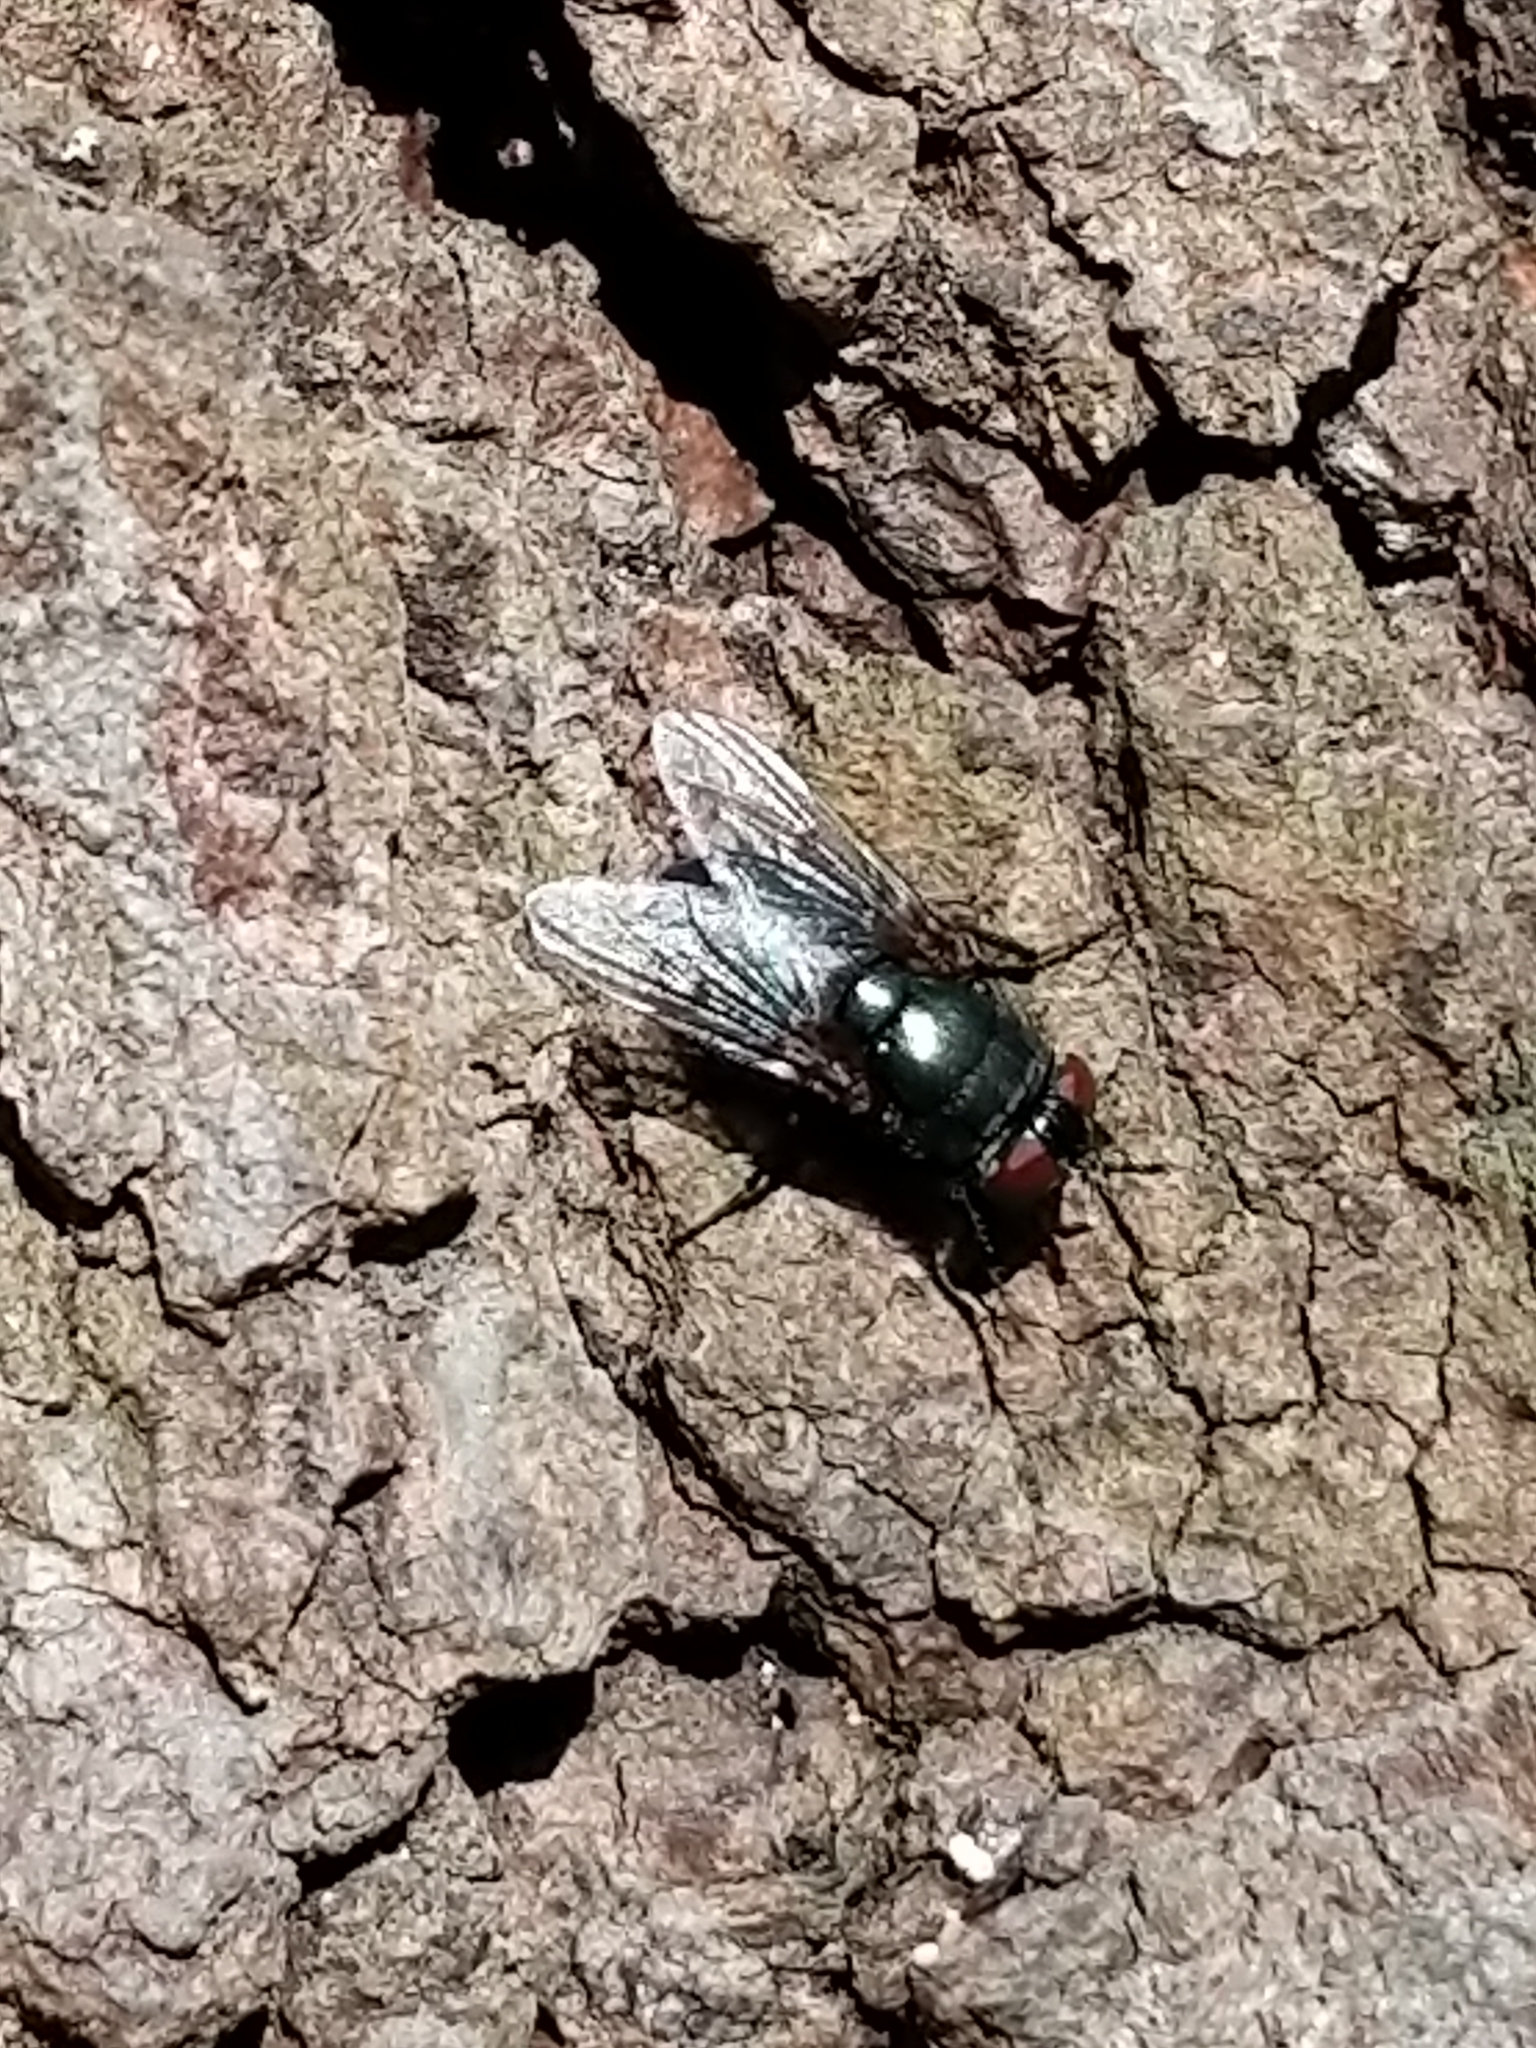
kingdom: Animalia
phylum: Arthropoda
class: Insecta
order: Diptera
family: Calliphoridae
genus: Phormia
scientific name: Phormia regina
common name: Black blow fly
